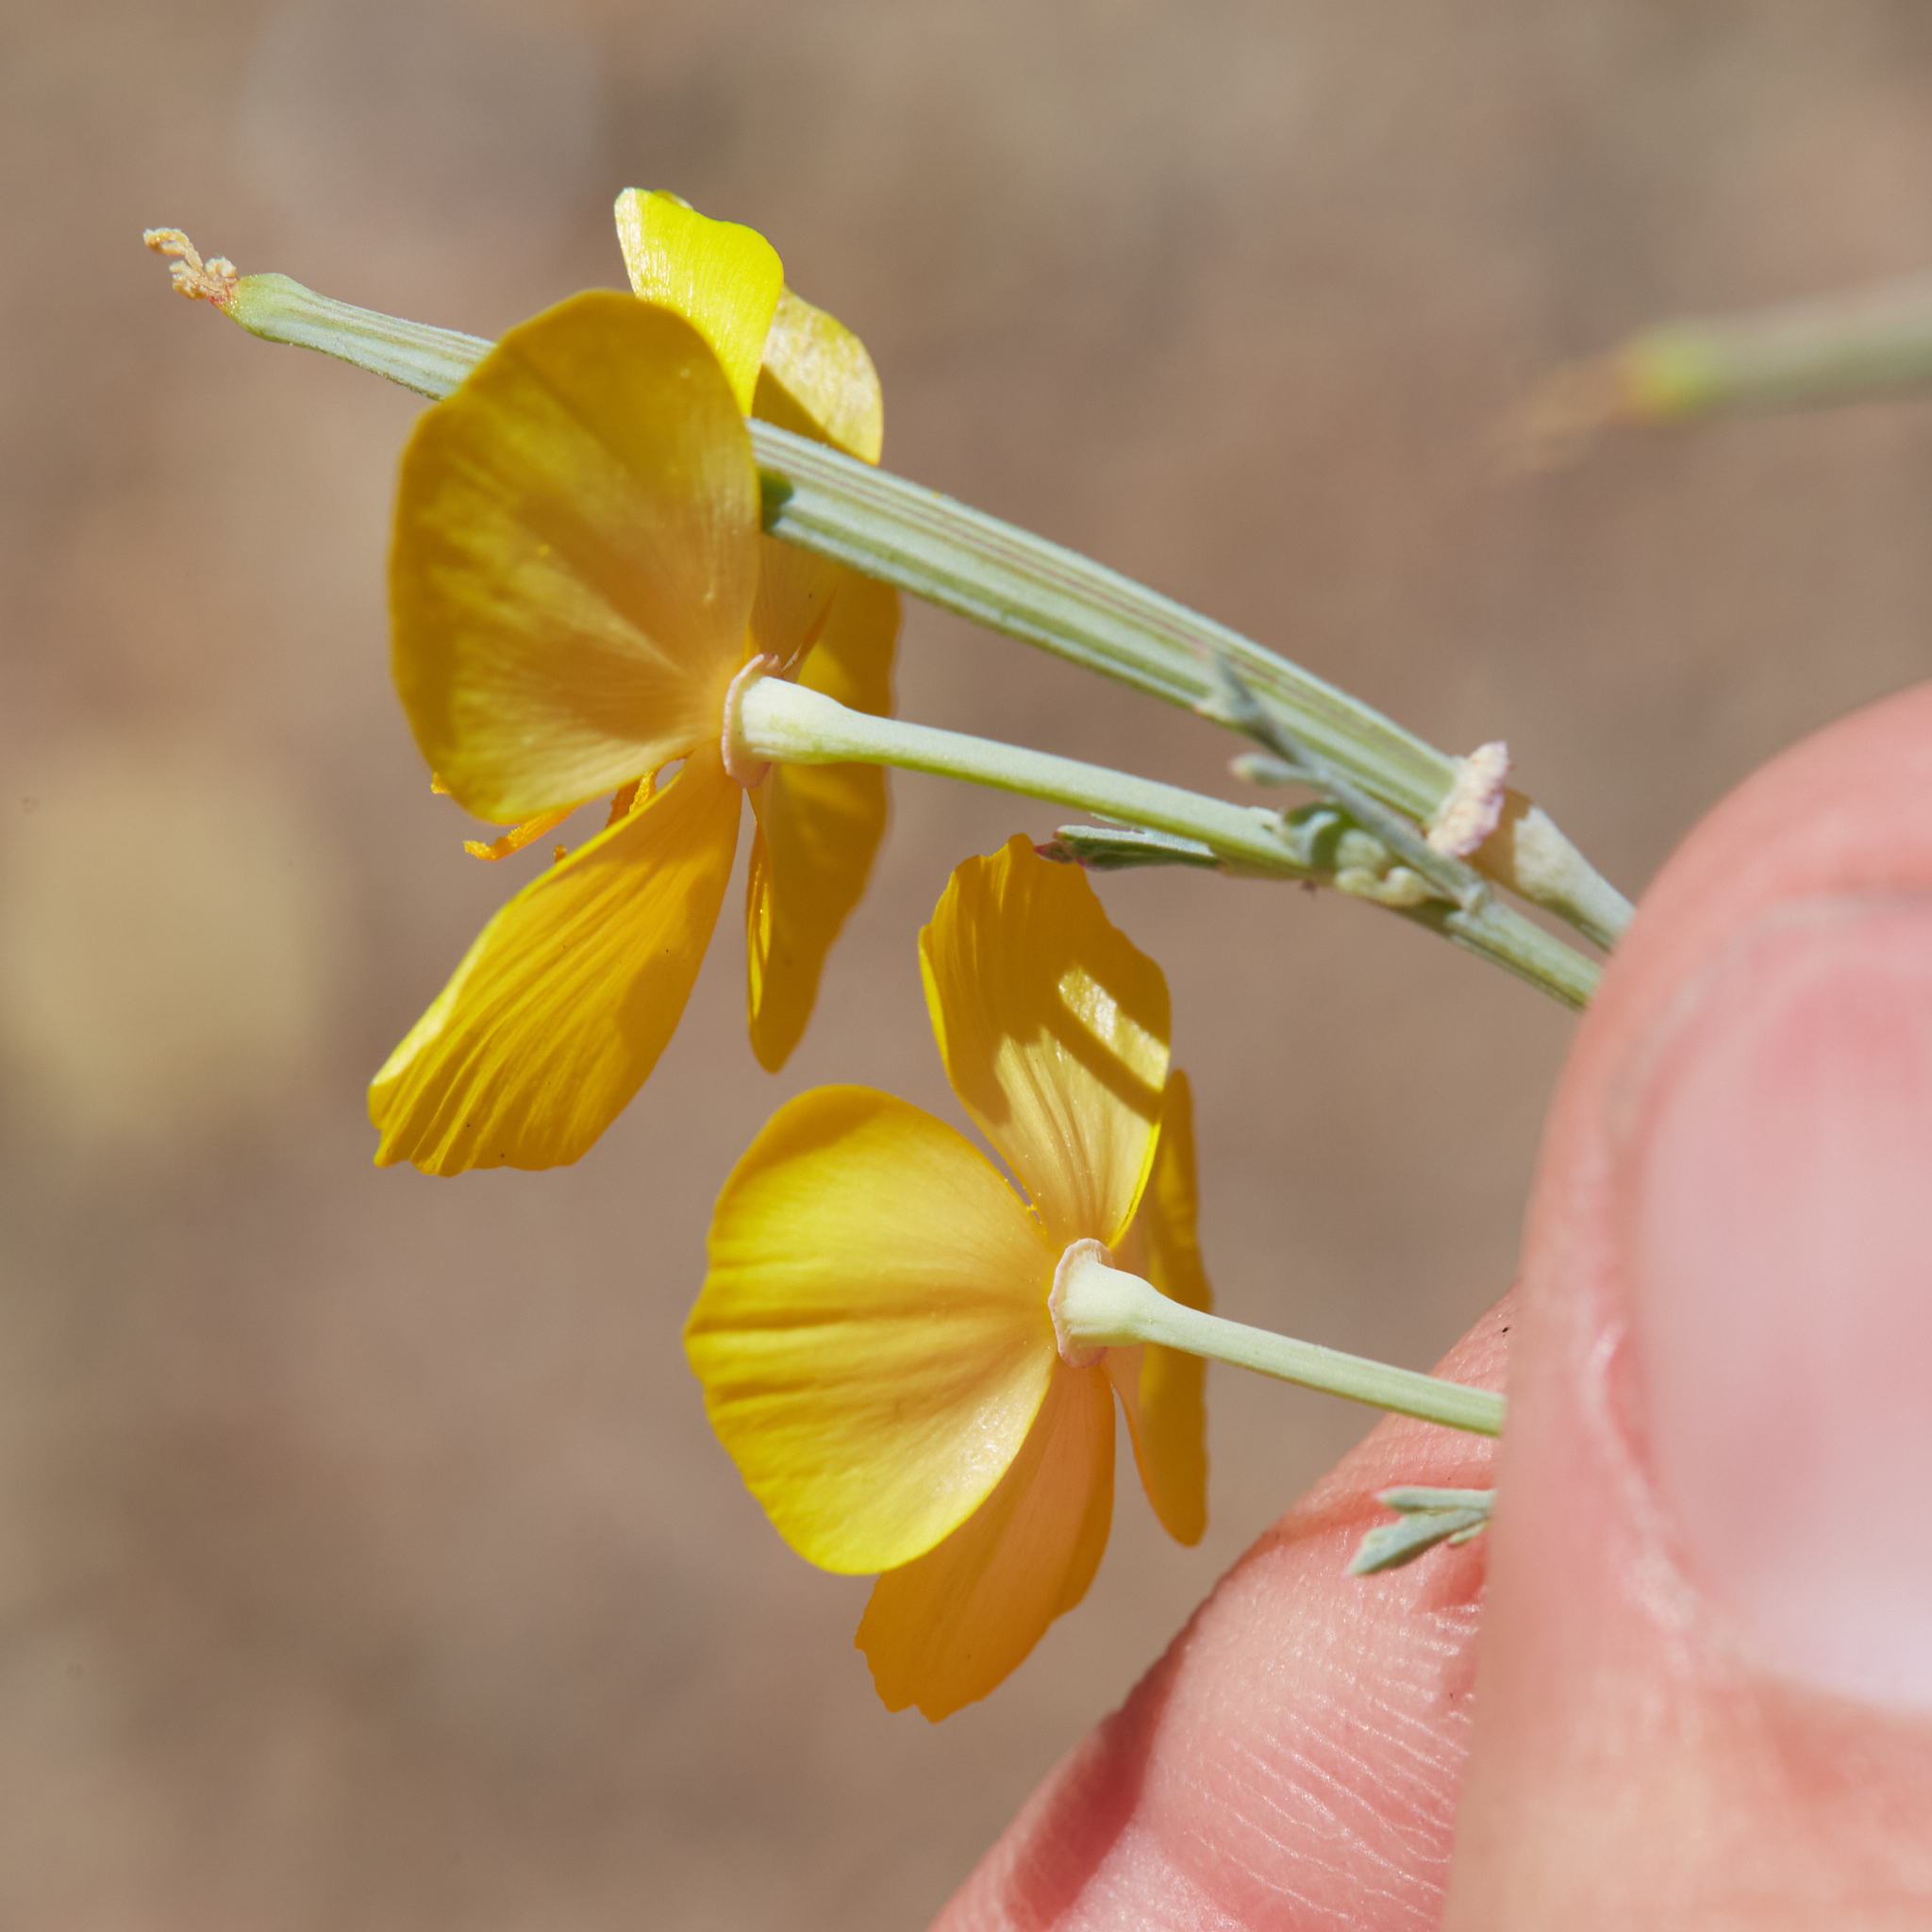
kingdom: Plantae
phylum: Tracheophyta
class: Magnoliopsida
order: Ranunculales
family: Papaveraceae
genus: Eschscholzia
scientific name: Eschscholzia californica
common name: California poppy
